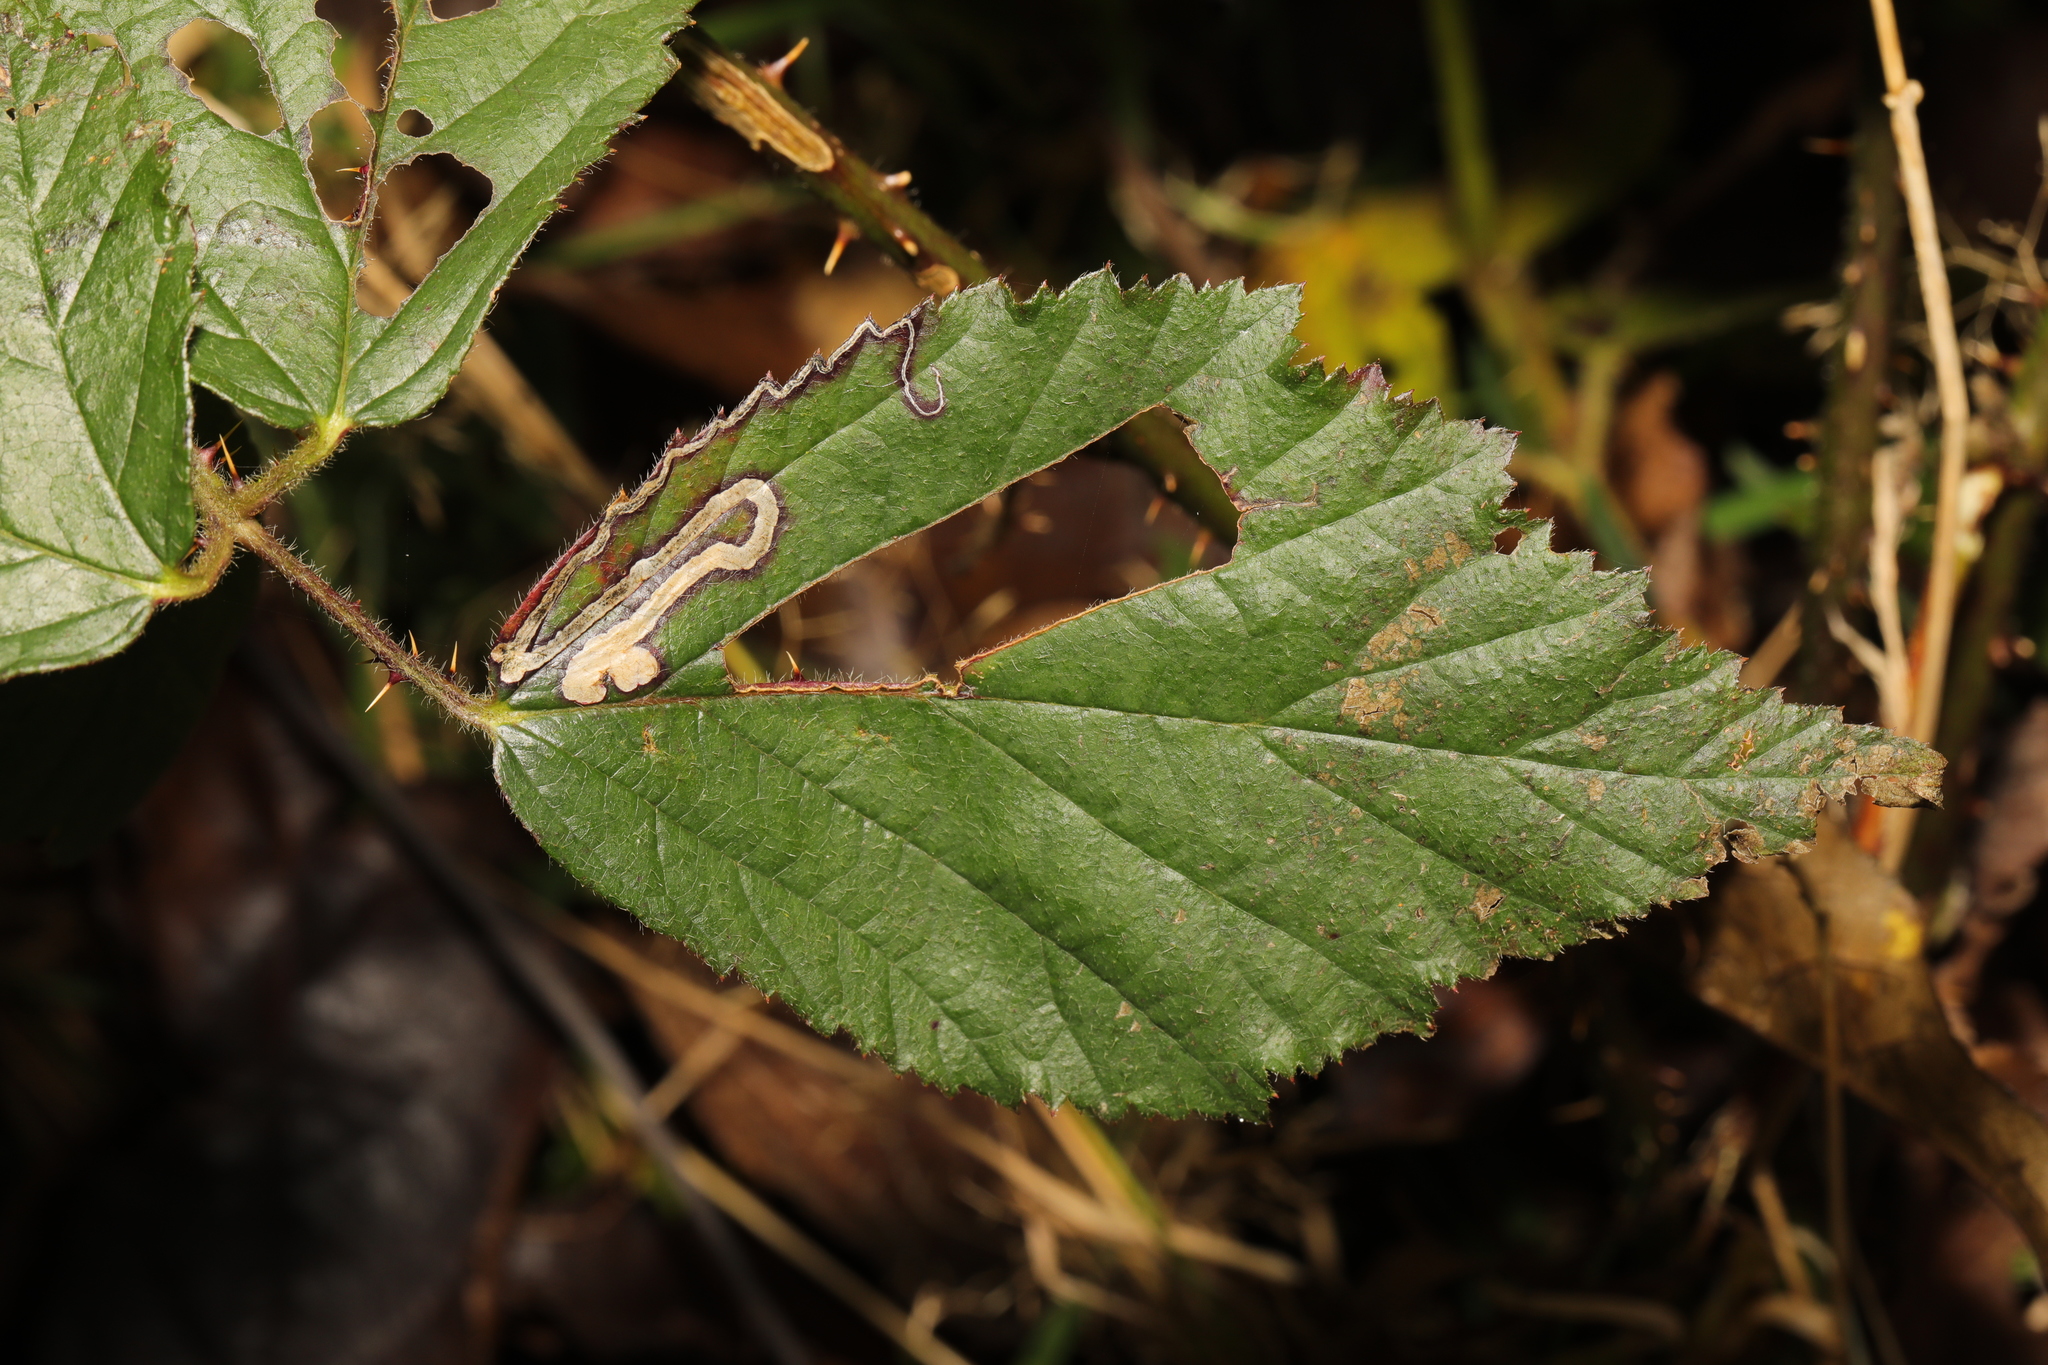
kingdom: Animalia
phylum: Arthropoda
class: Insecta
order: Lepidoptera
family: Nepticulidae
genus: Stigmella
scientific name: Stigmella aurella
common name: Golden pigmy
